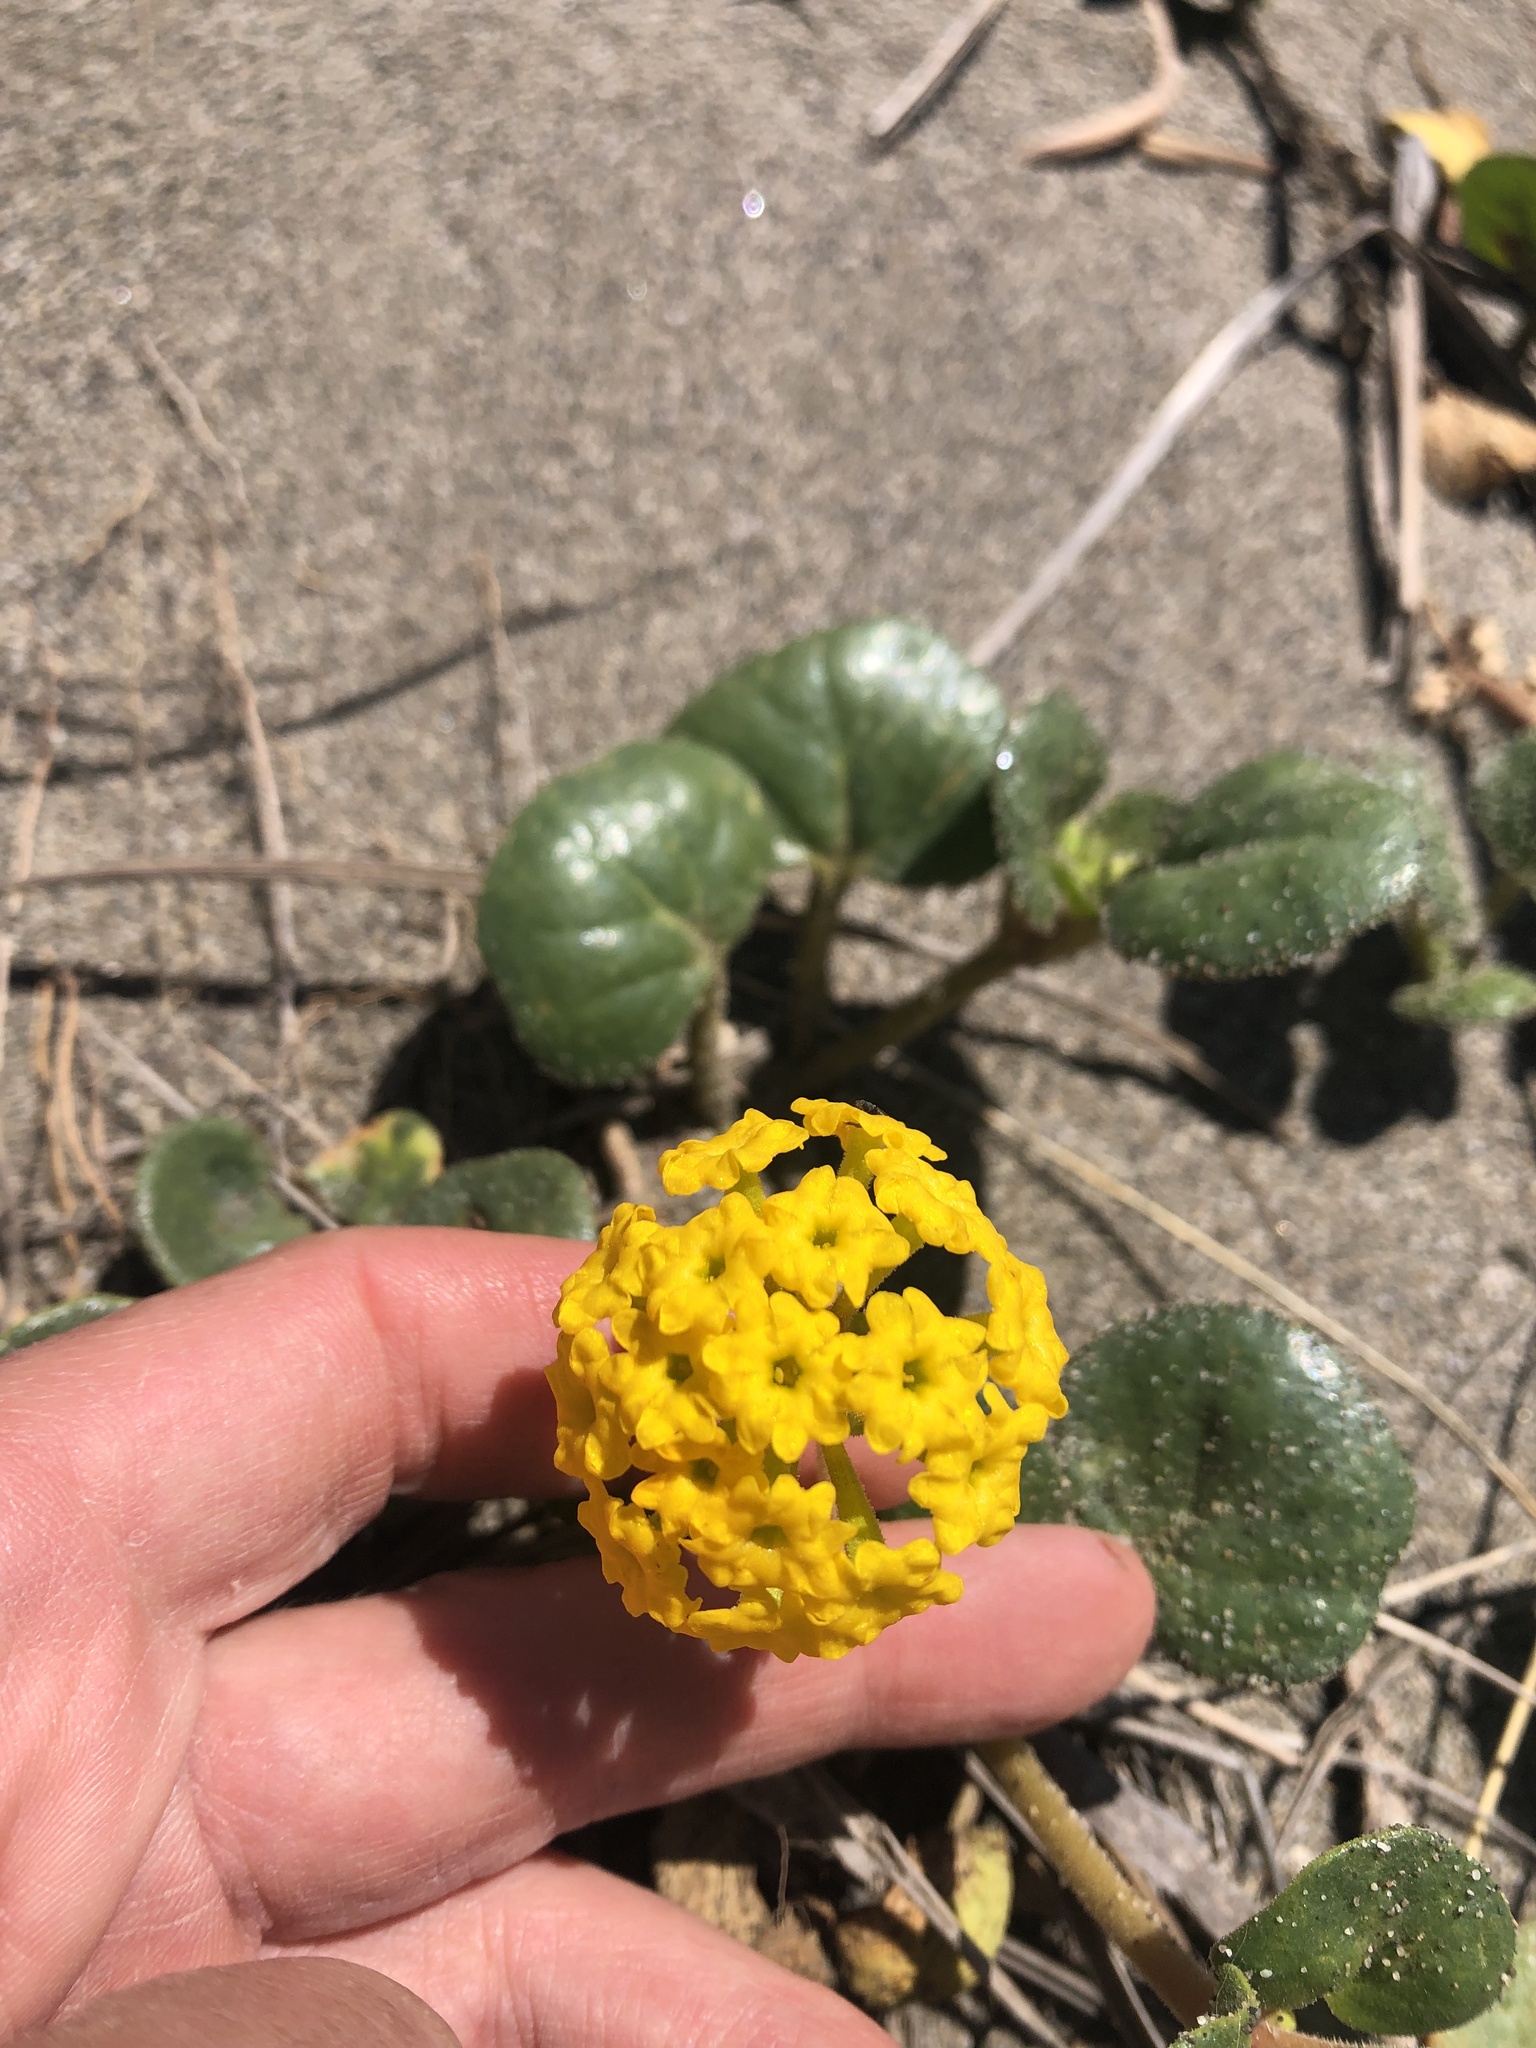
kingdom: Plantae
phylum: Tracheophyta
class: Magnoliopsida
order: Caryophyllales
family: Nyctaginaceae
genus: Abronia
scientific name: Abronia latifolia
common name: Yellow sand-verbena
